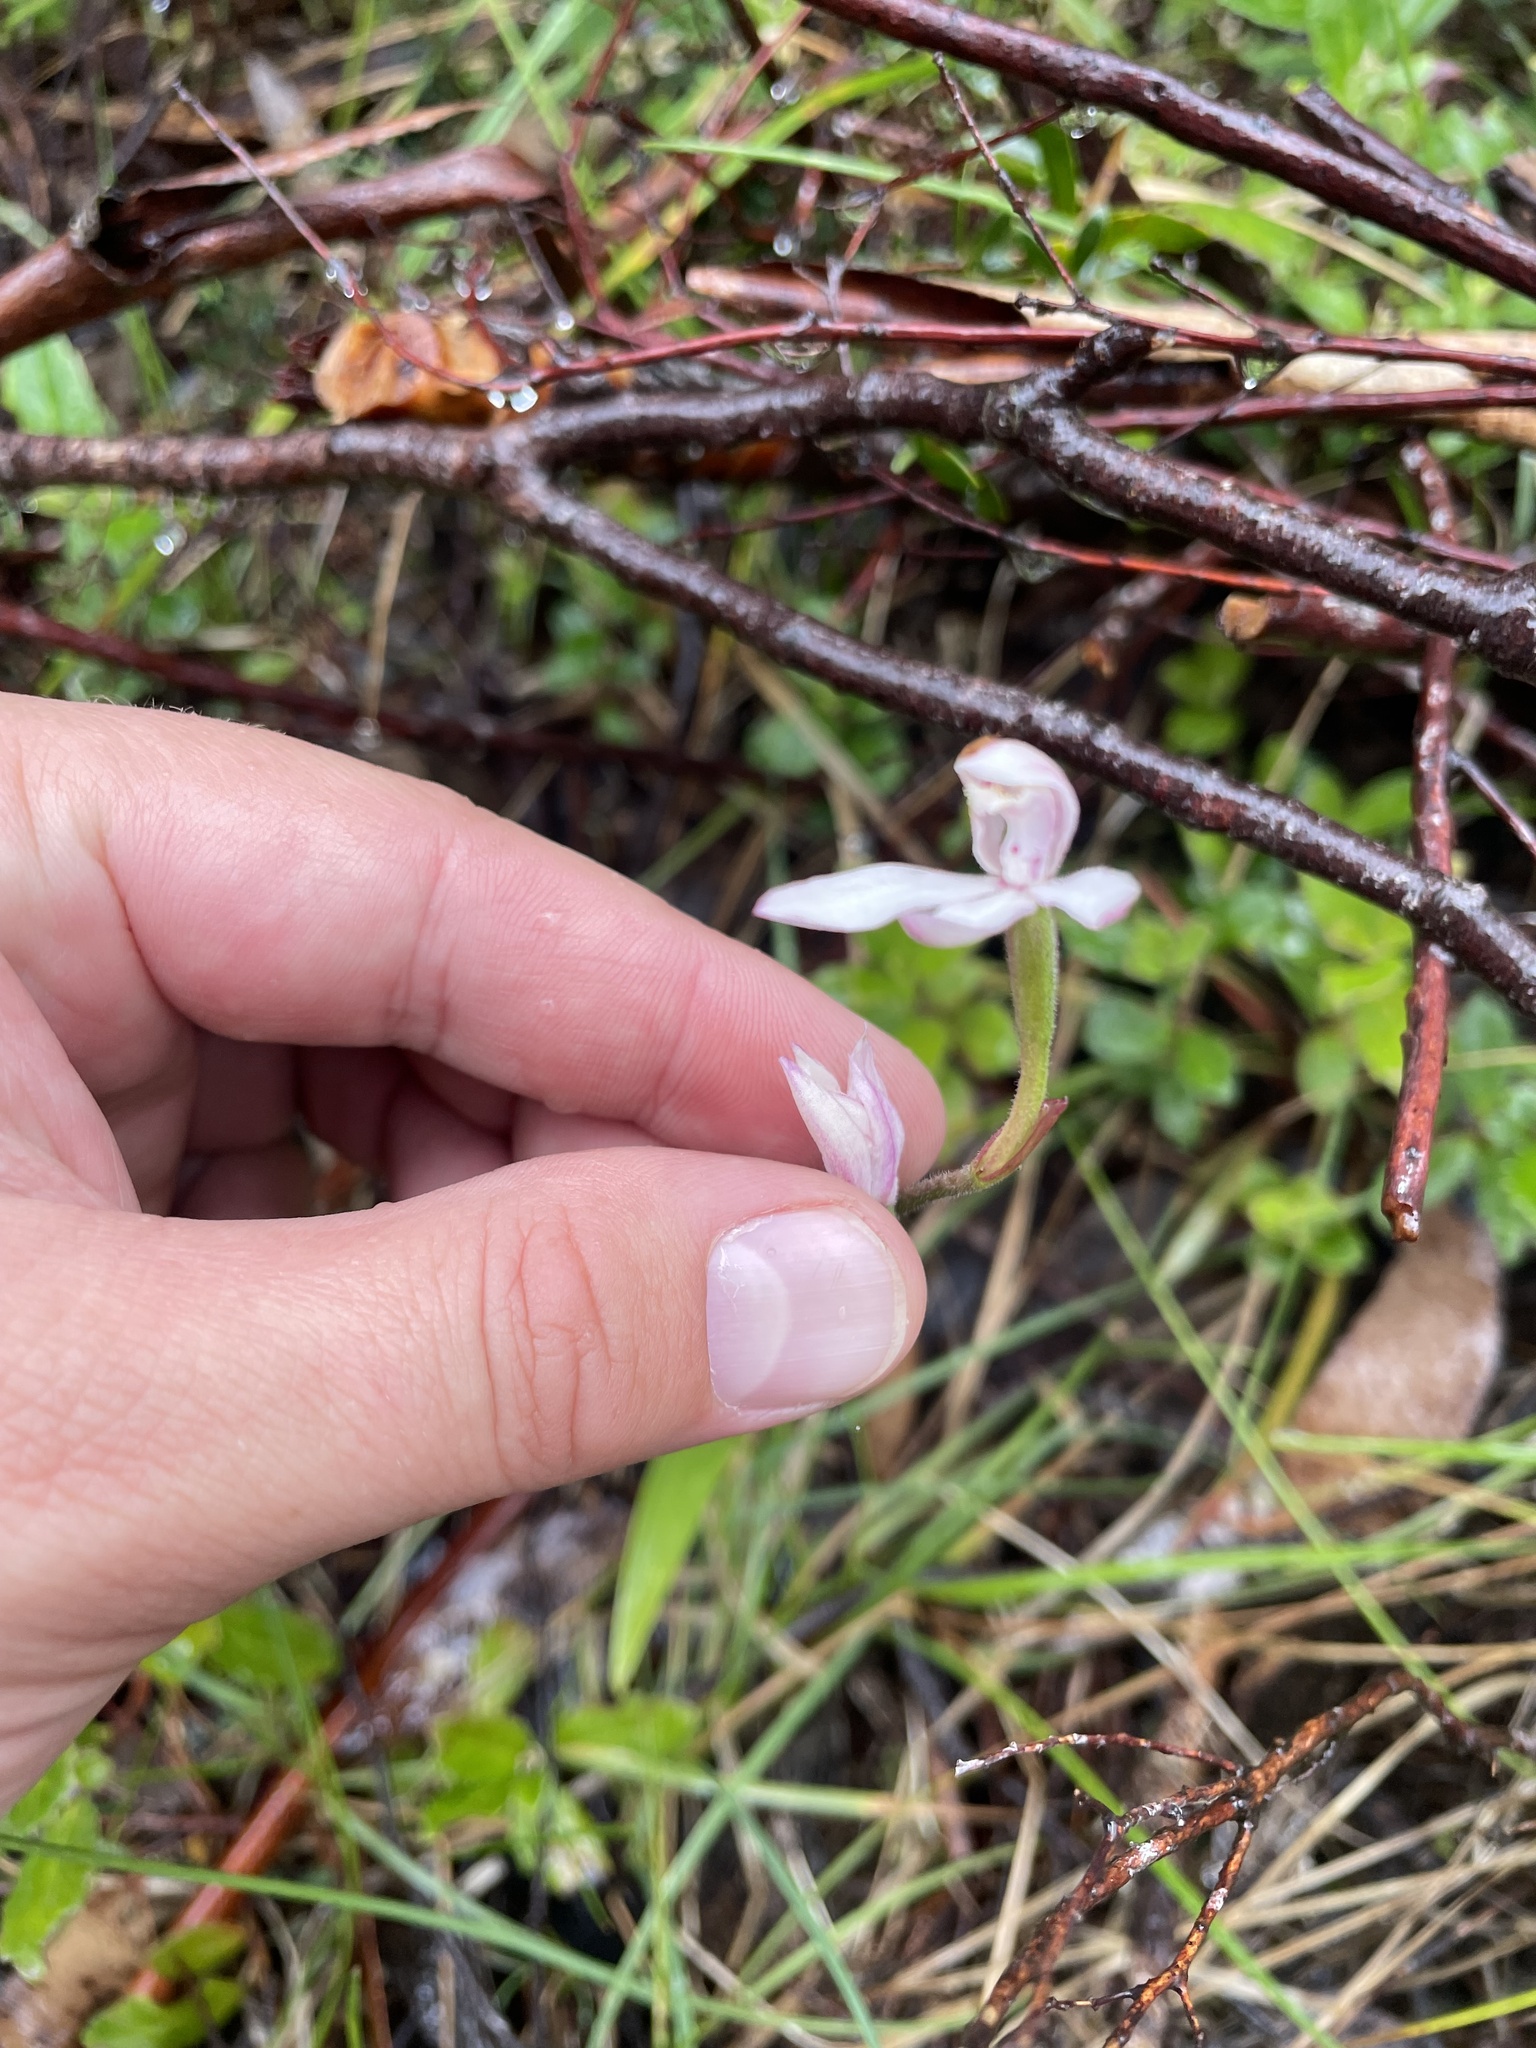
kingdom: Plantae
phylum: Tracheophyta
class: Liliopsida
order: Asparagales
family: Orchidaceae
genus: Caladenia
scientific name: Caladenia alpina
